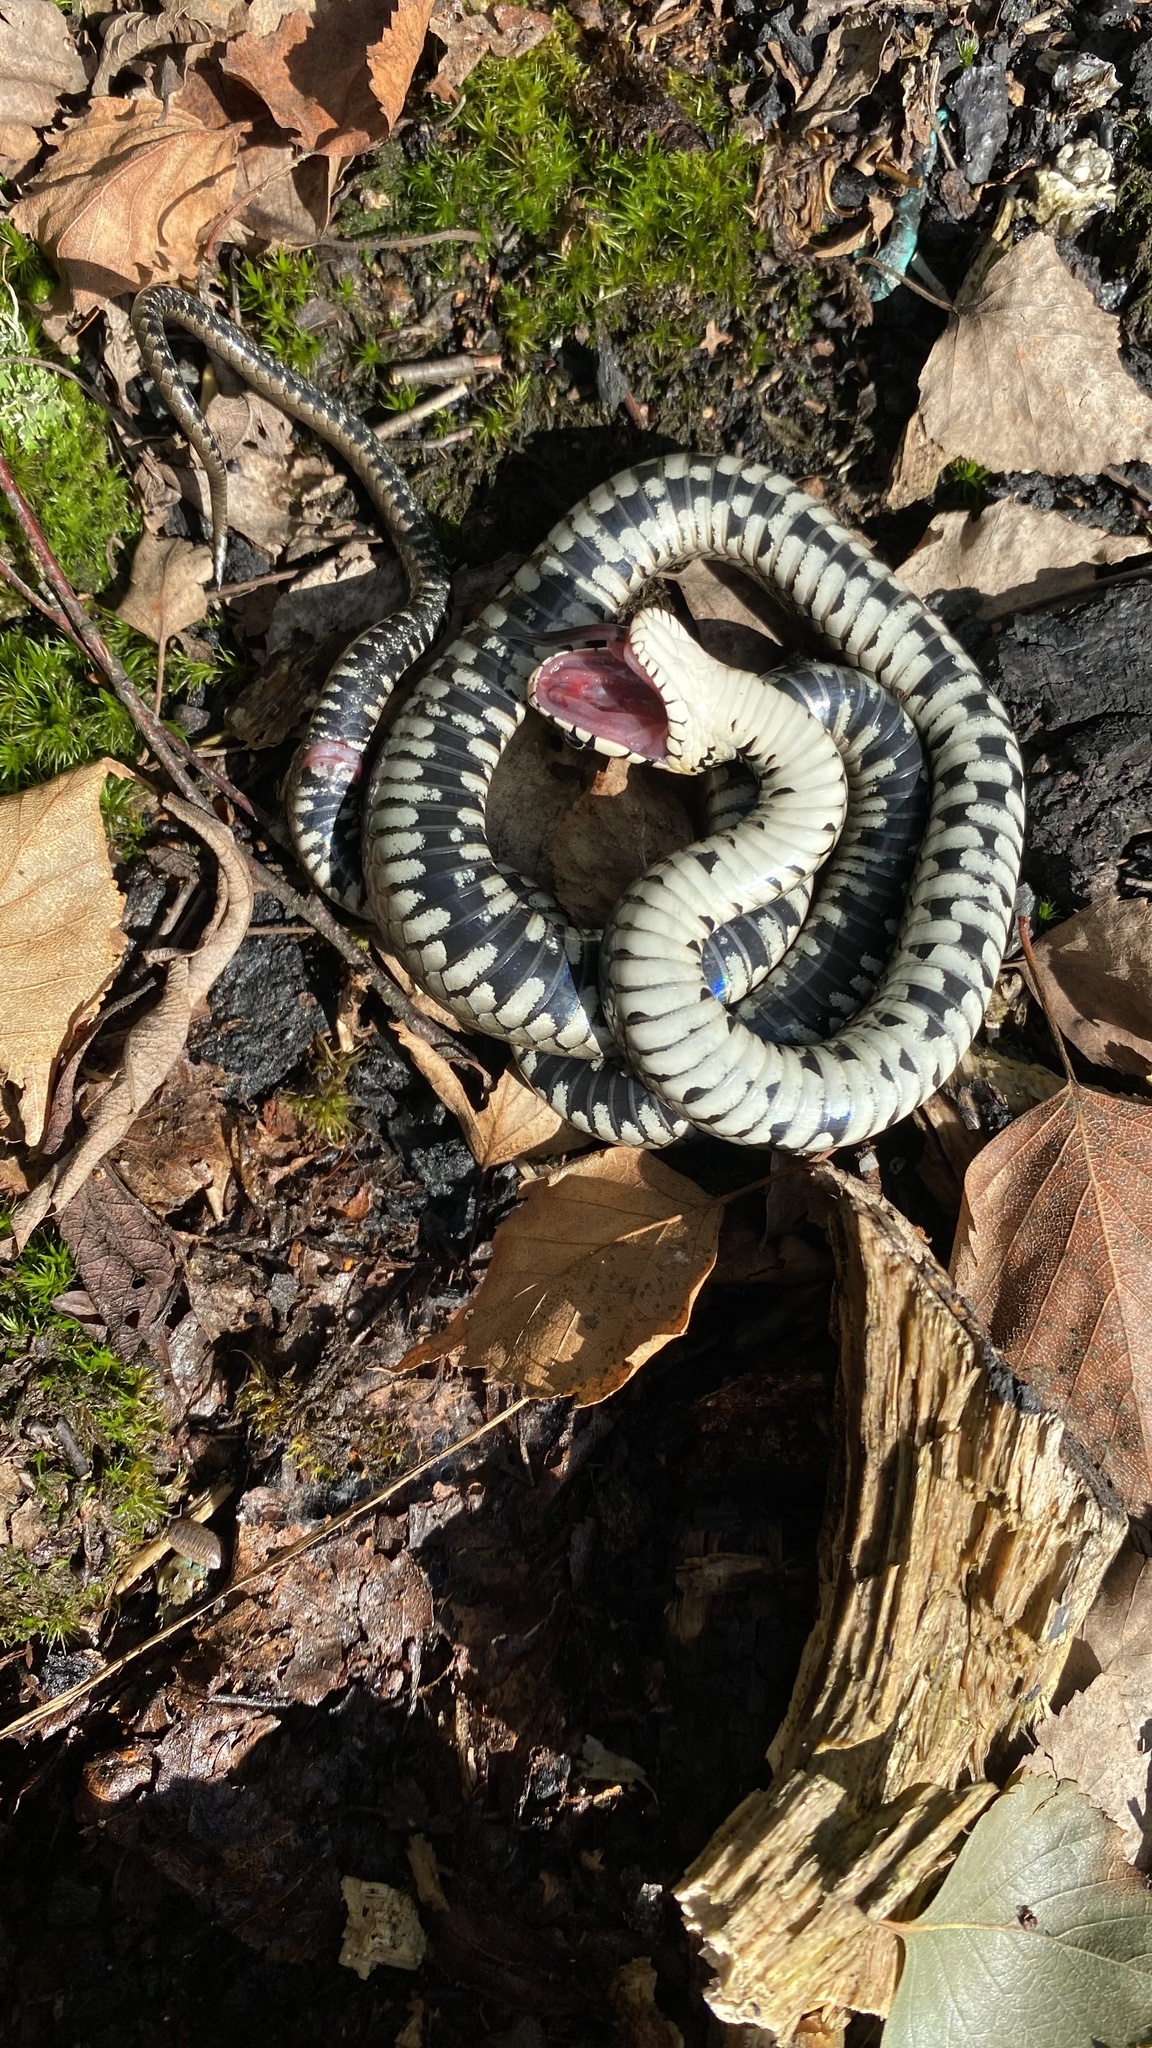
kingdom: Animalia
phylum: Chordata
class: Squamata
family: Colubridae
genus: Natrix
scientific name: Natrix natrix
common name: Grass snake
